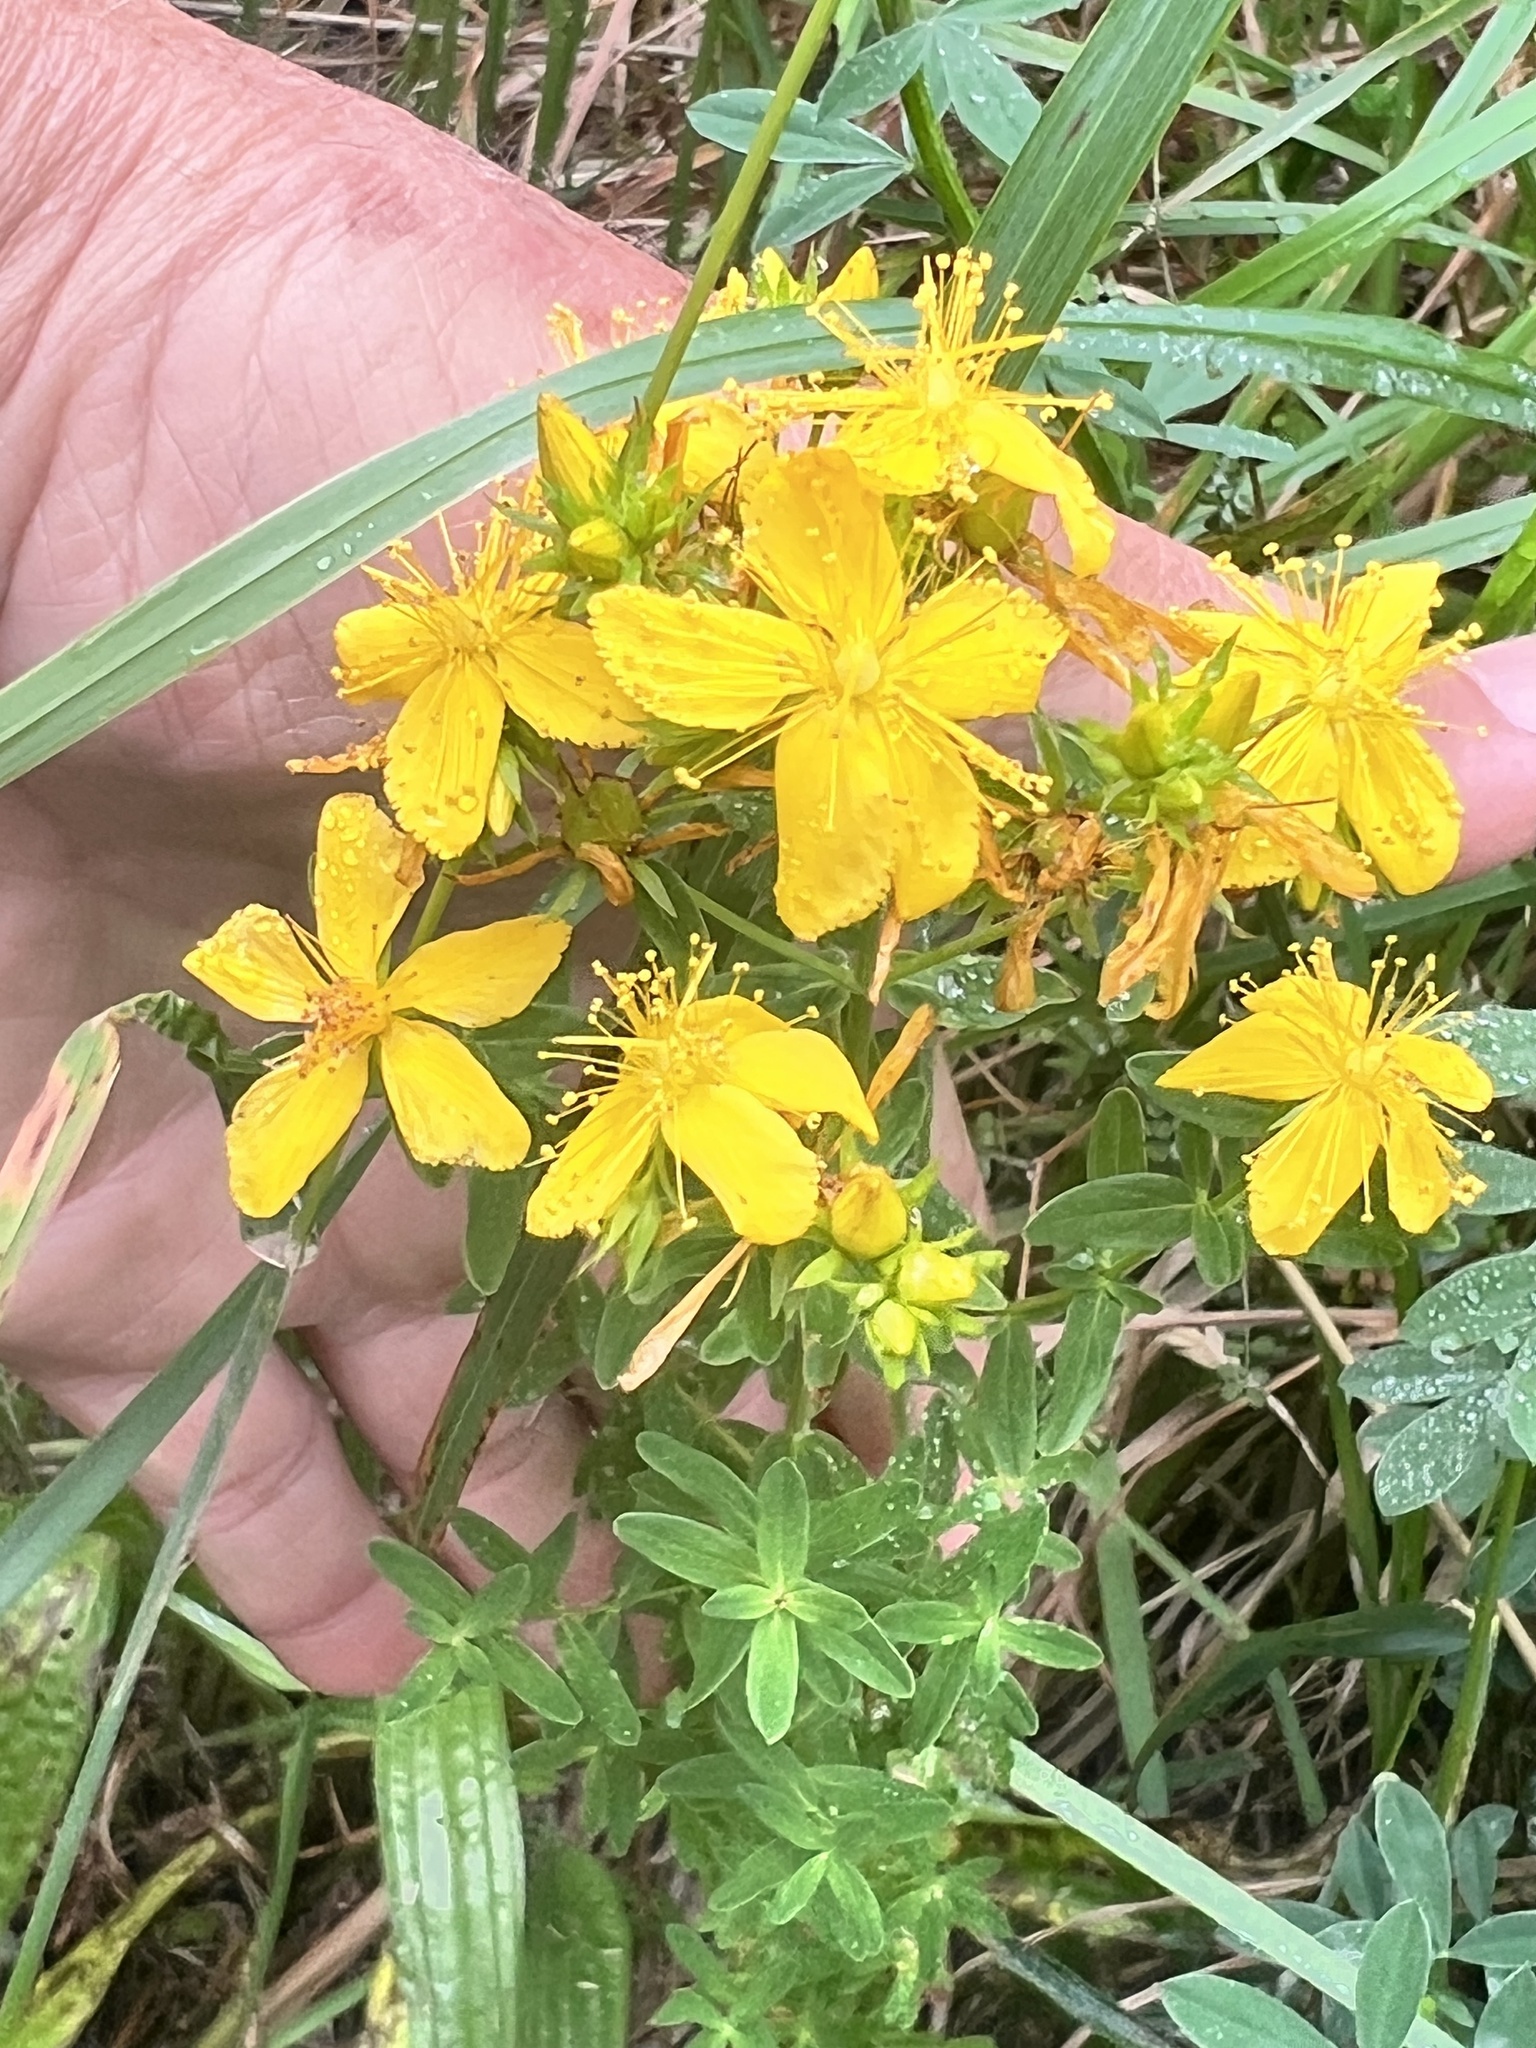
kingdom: Plantae
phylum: Tracheophyta
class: Magnoliopsida
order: Malpighiales
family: Hypericaceae
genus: Hypericum
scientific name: Hypericum perforatum
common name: Common st. johnswort
